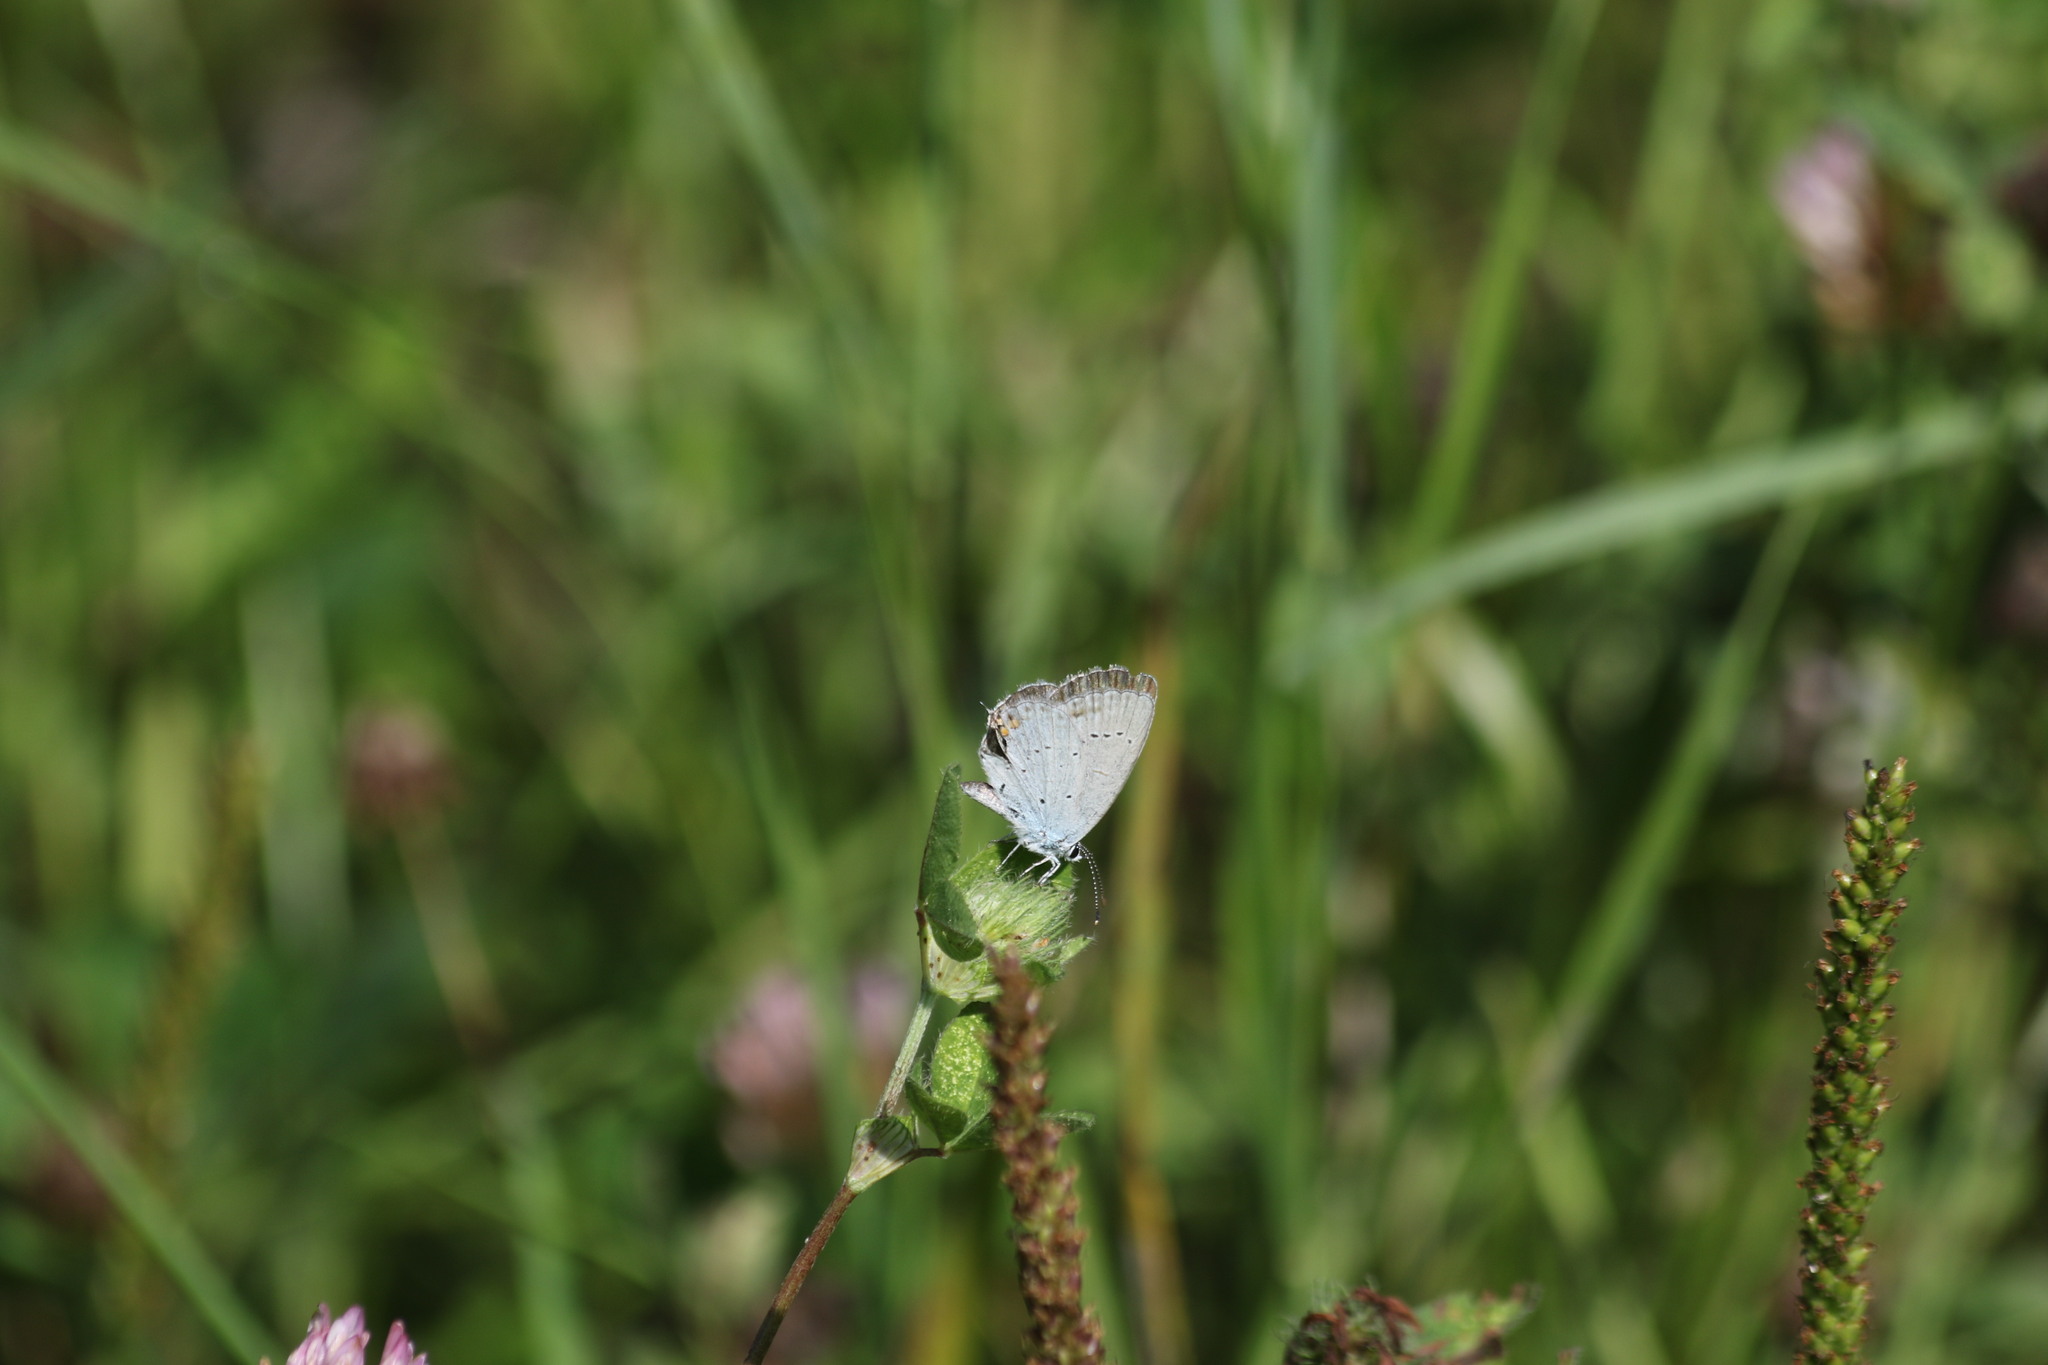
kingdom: Animalia
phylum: Arthropoda
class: Insecta
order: Lepidoptera
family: Lycaenidae
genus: Elkalyce
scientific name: Elkalyce argiades
